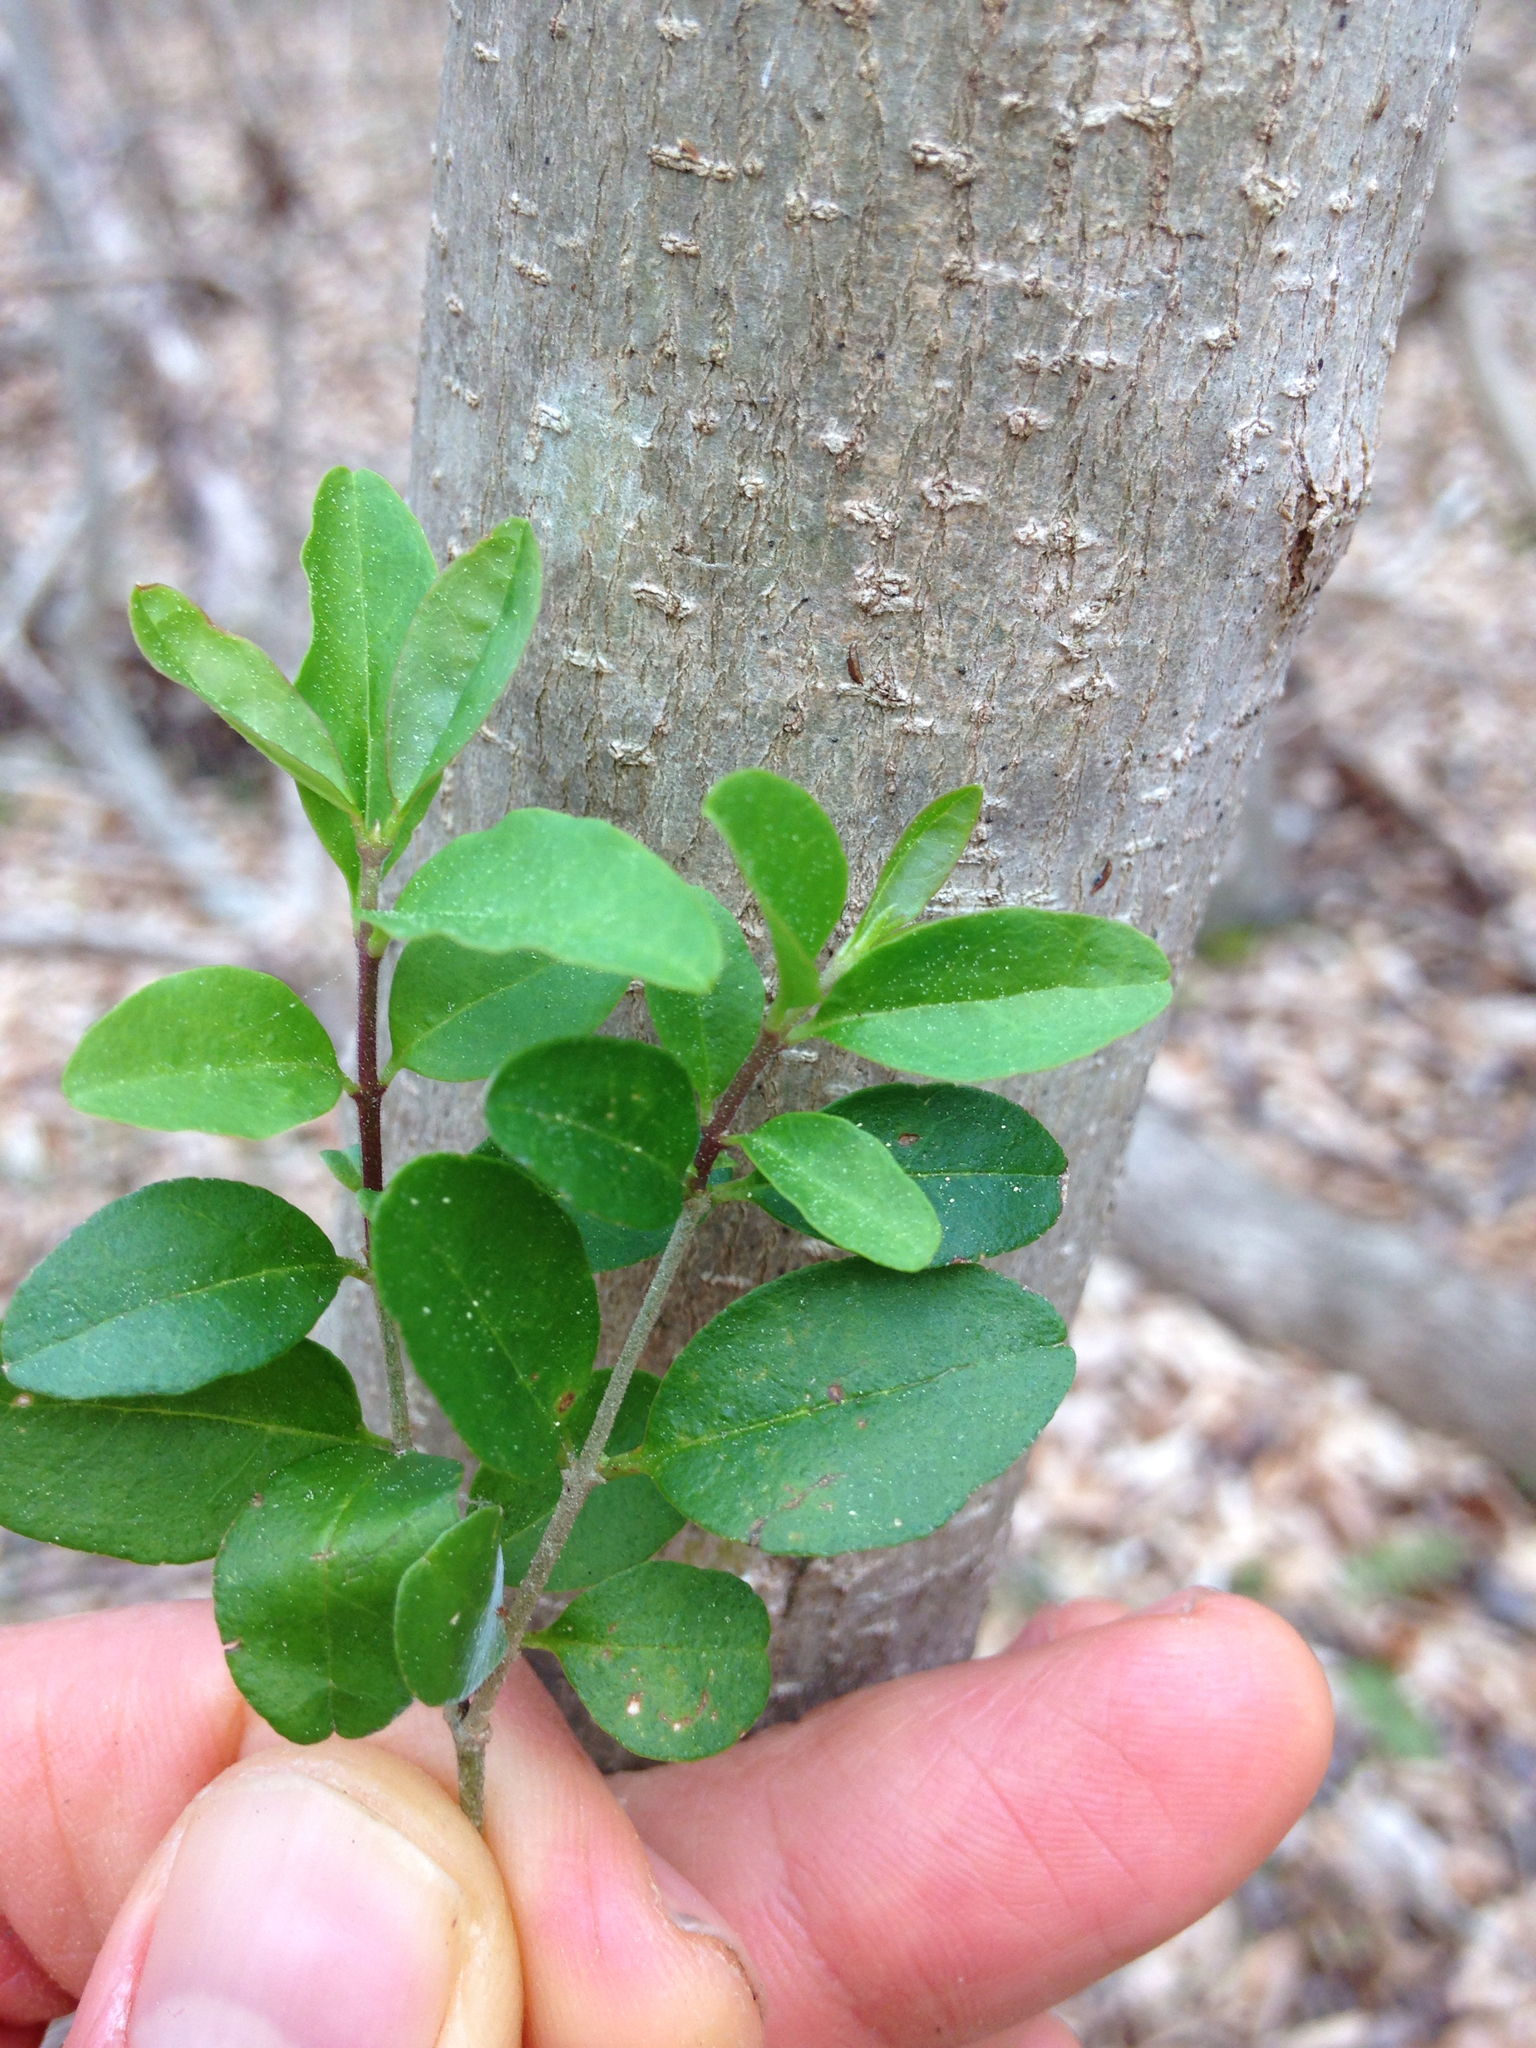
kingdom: Plantae
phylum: Tracheophyta
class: Magnoliopsida
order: Lamiales
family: Oleaceae
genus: Ligustrum
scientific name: Ligustrum sinense
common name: Chinese privet
